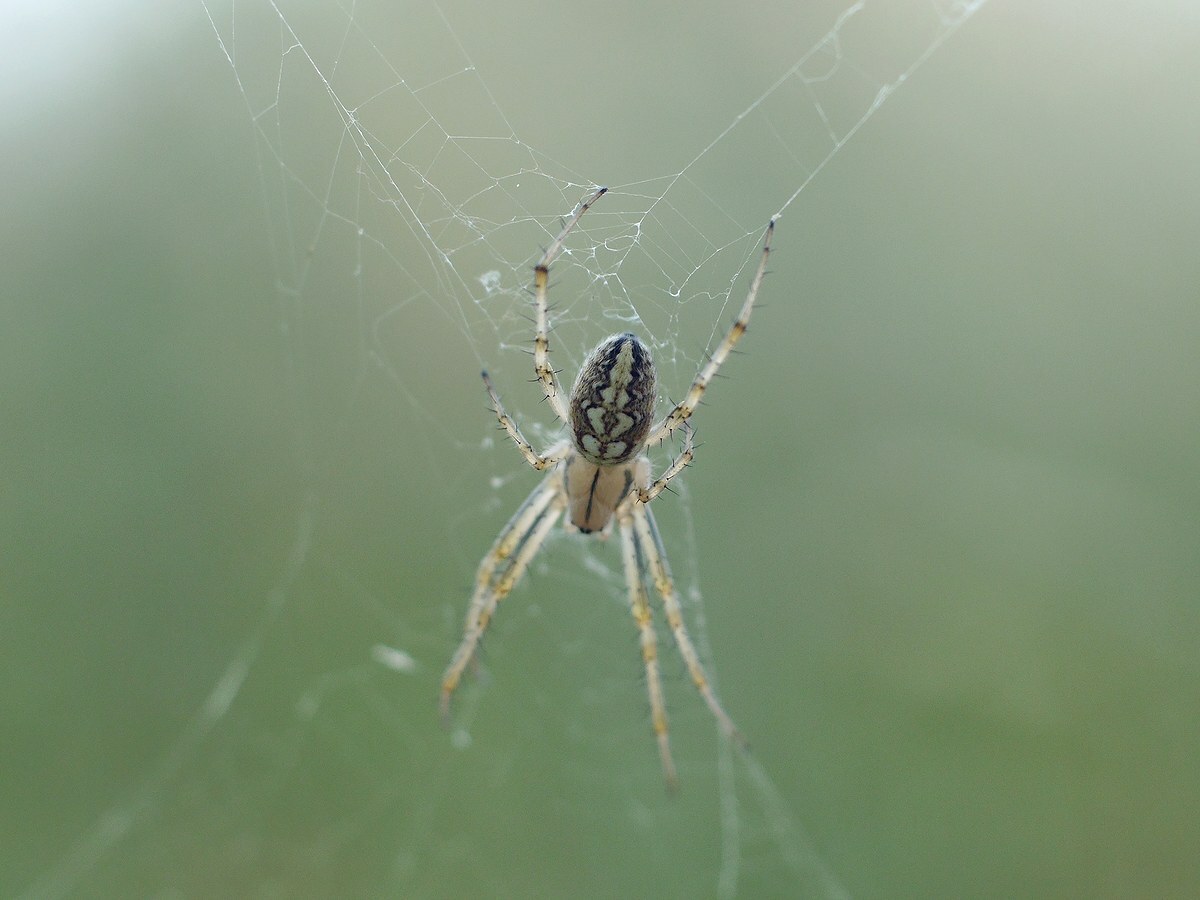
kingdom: Animalia
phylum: Arthropoda
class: Arachnida
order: Araneae
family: Araneidae
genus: Neoscona
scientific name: Neoscona adianta
